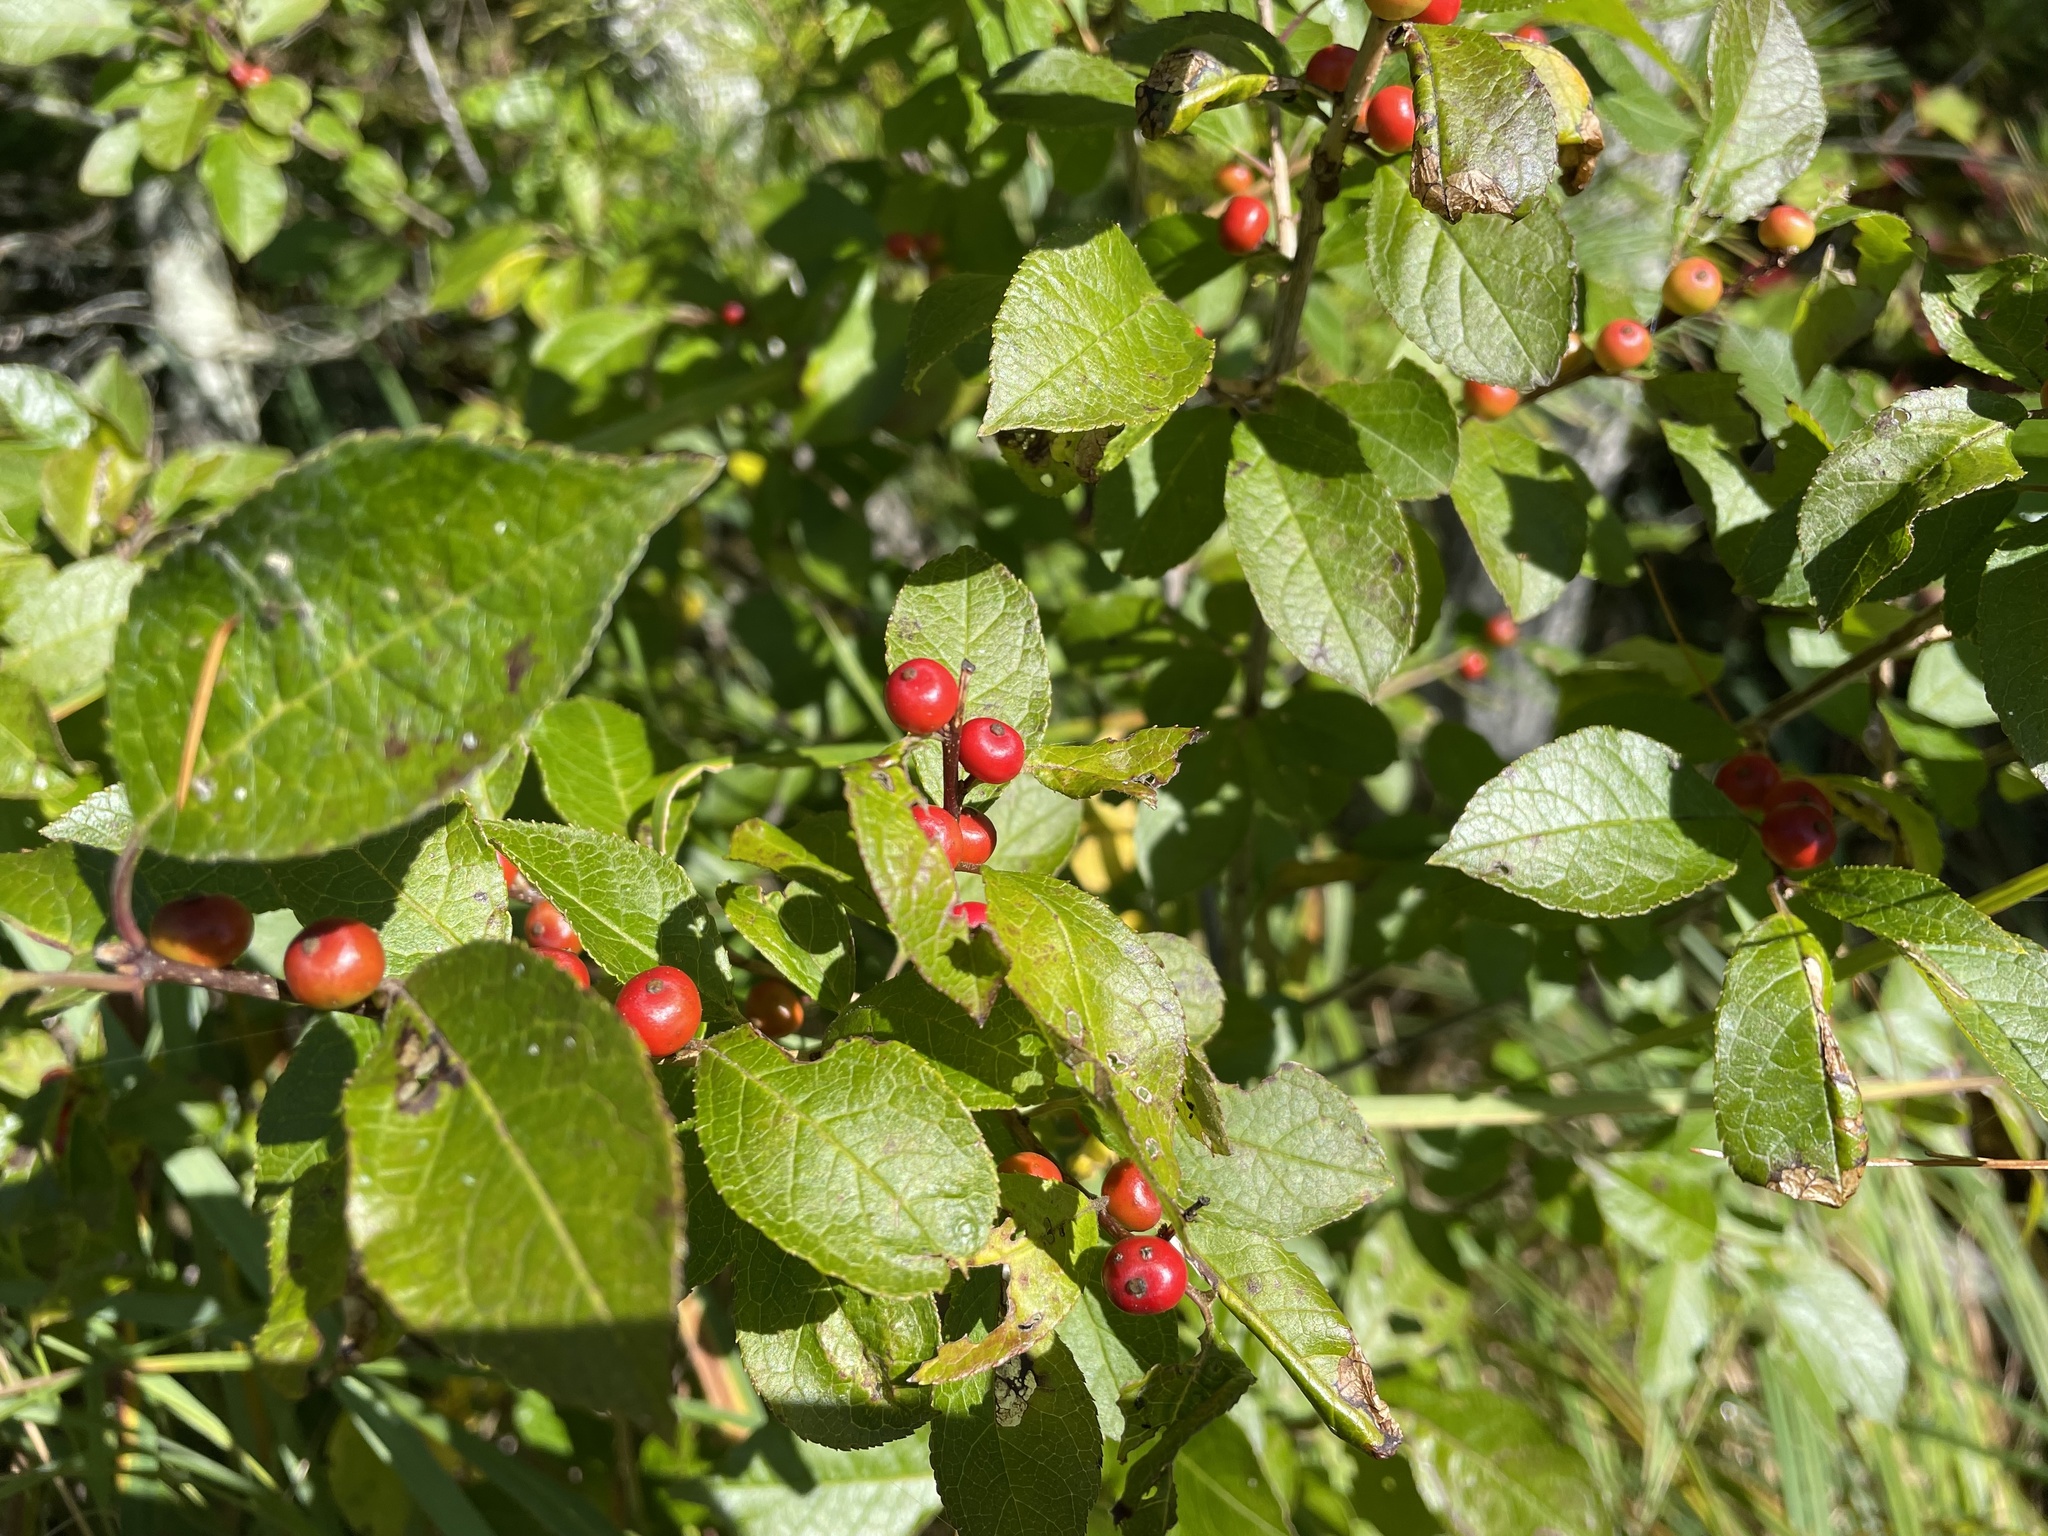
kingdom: Plantae
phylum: Tracheophyta
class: Magnoliopsida
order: Aquifoliales
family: Aquifoliaceae
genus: Ilex
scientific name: Ilex verticillata
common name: Virginia winterberry
